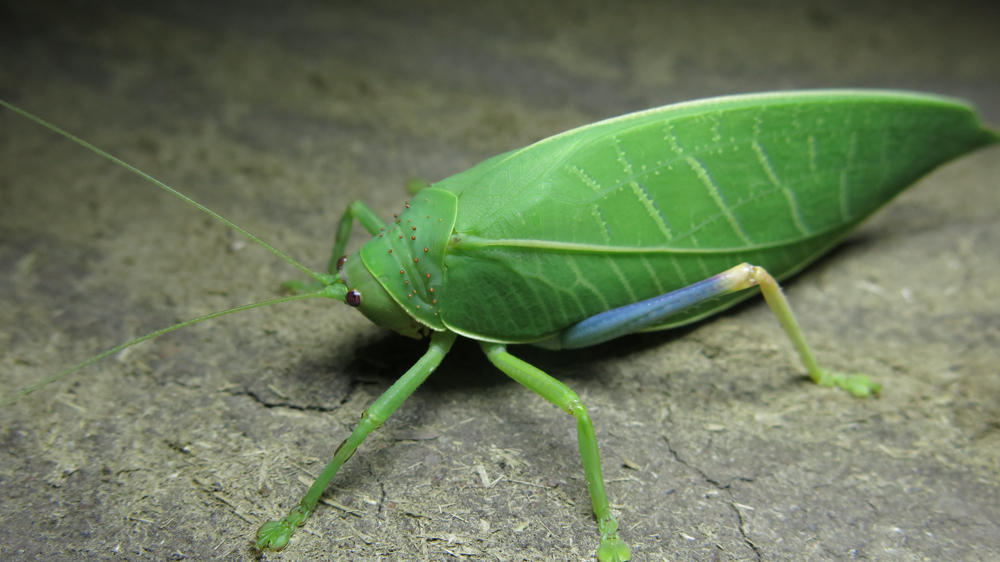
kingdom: Animalia
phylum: Arthropoda
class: Insecta
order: Orthoptera
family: Tettigoniidae
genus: Zabalius
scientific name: Zabalius ophthalmicus
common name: Blue-legged sylvan katydid
